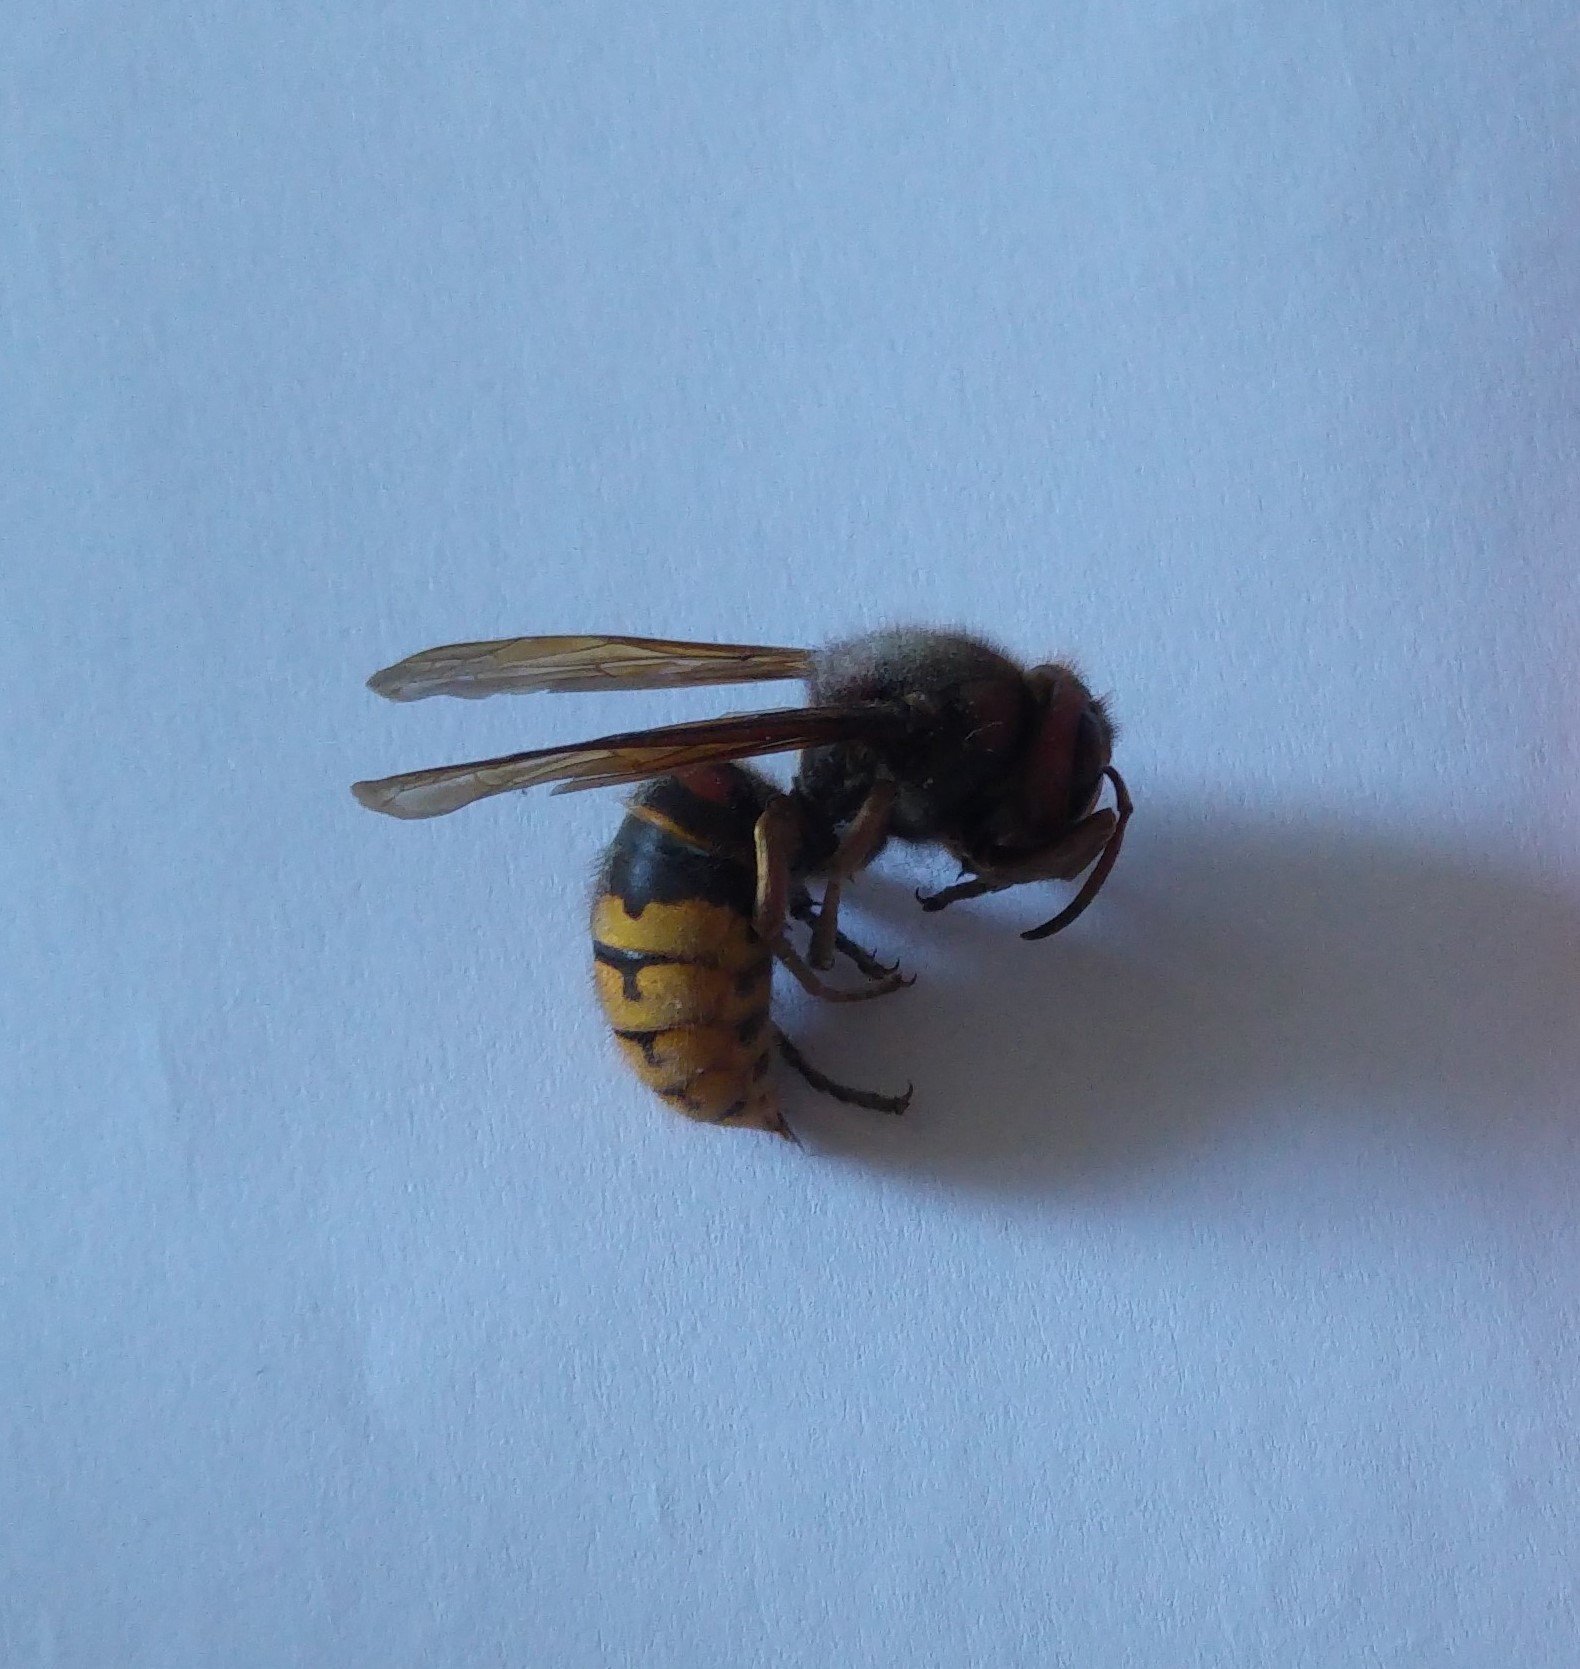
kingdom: Animalia
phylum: Arthropoda
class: Insecta
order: Hymenoptera
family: Vespidae
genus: Vespa
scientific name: Vespa crabro
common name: Hornet
